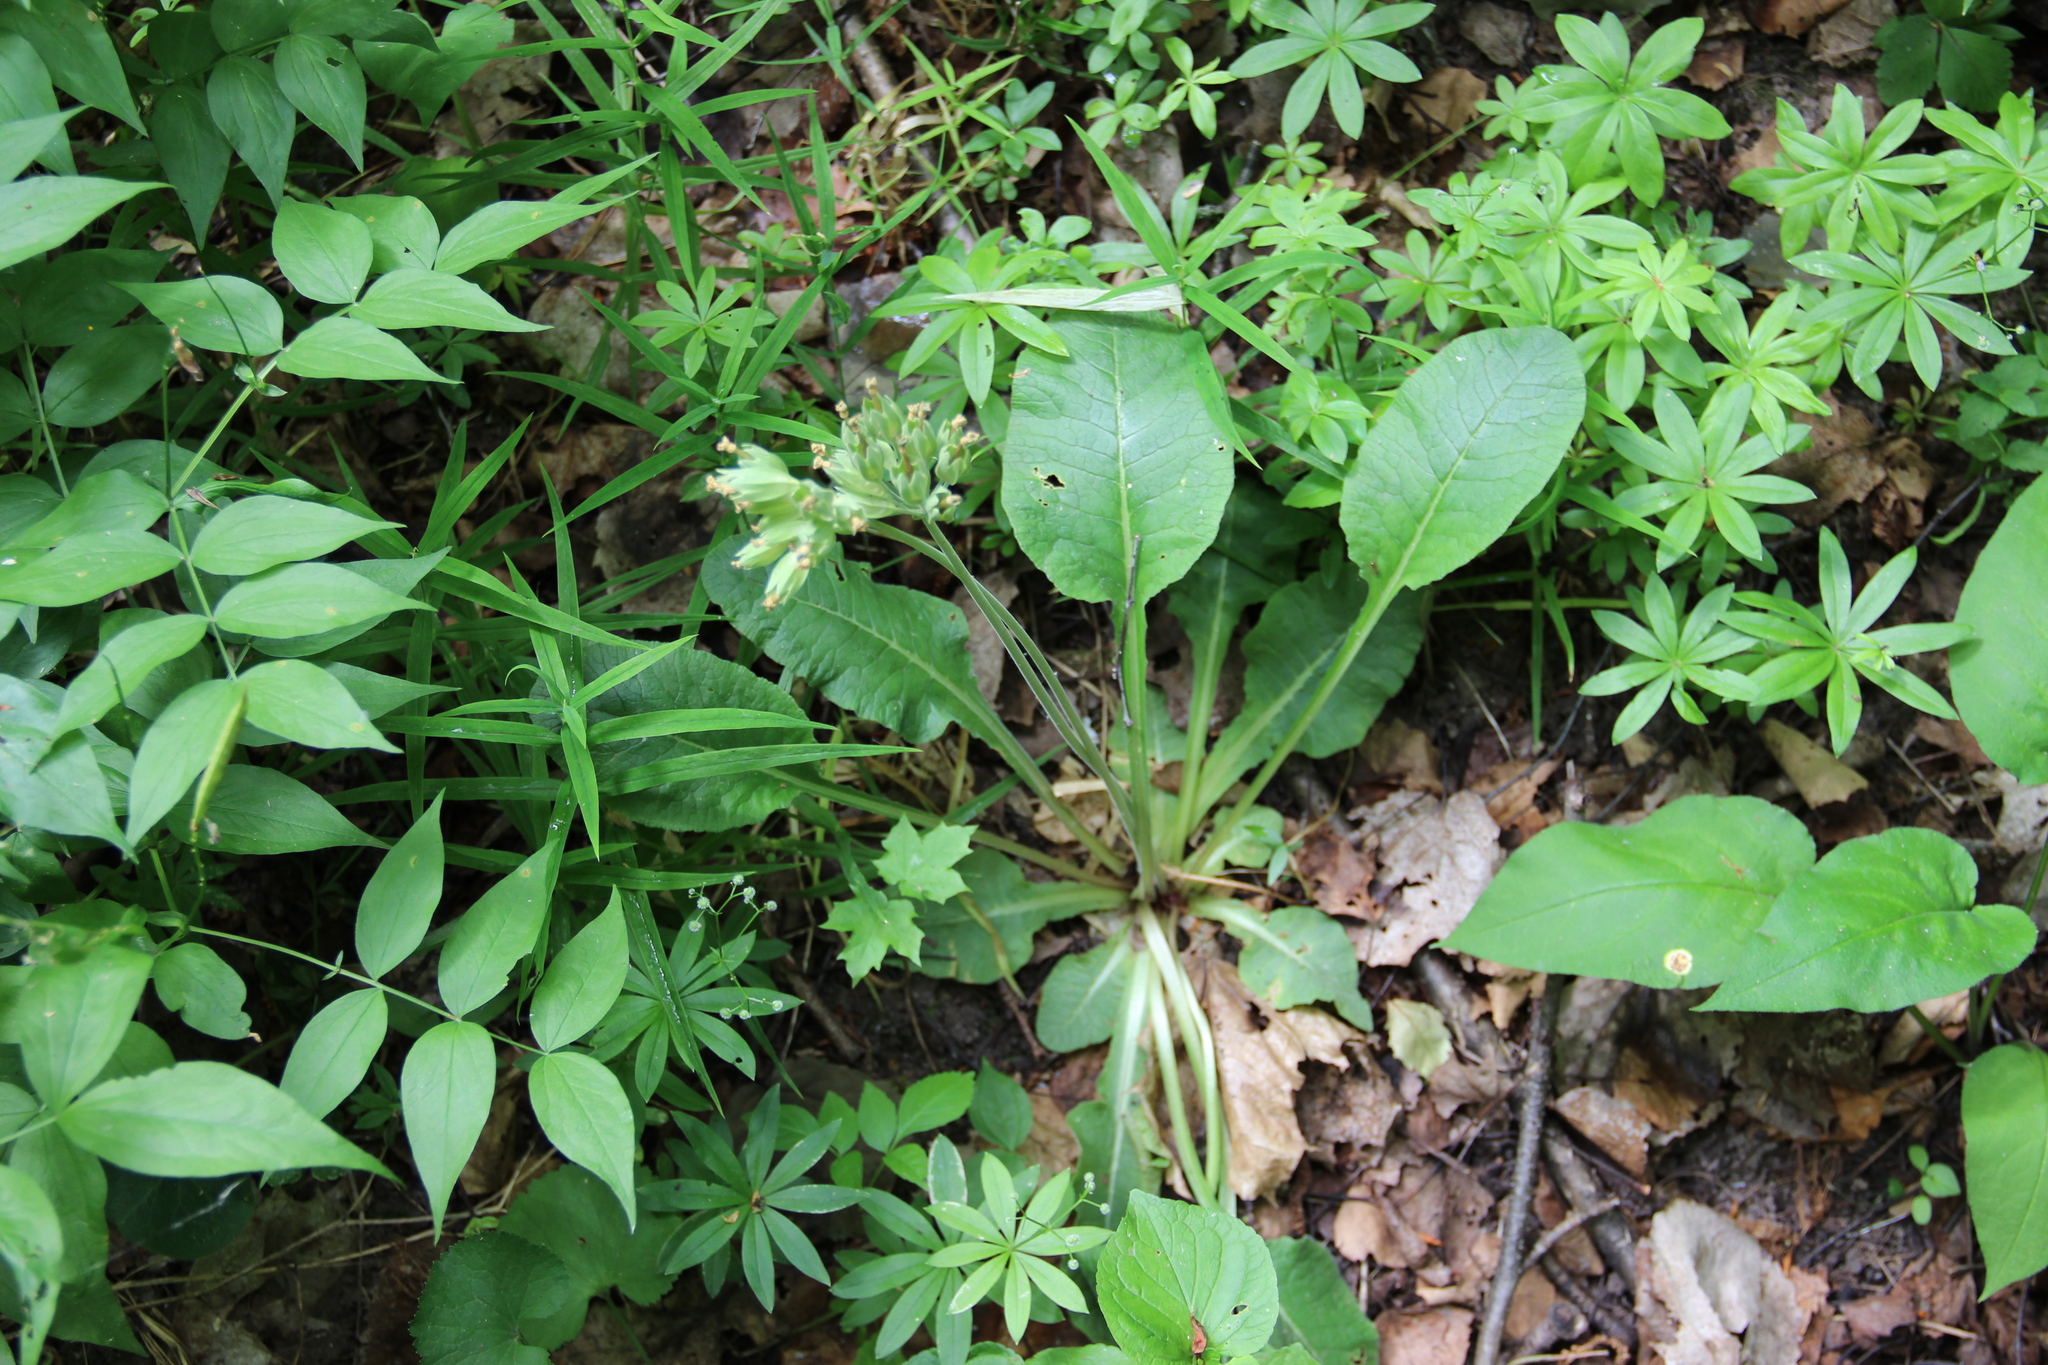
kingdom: Plantae
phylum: Tracheophyta
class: Magnoliopsida
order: Ericales
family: Primulaceae
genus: Primula
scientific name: Primula veris
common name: Cowslip
